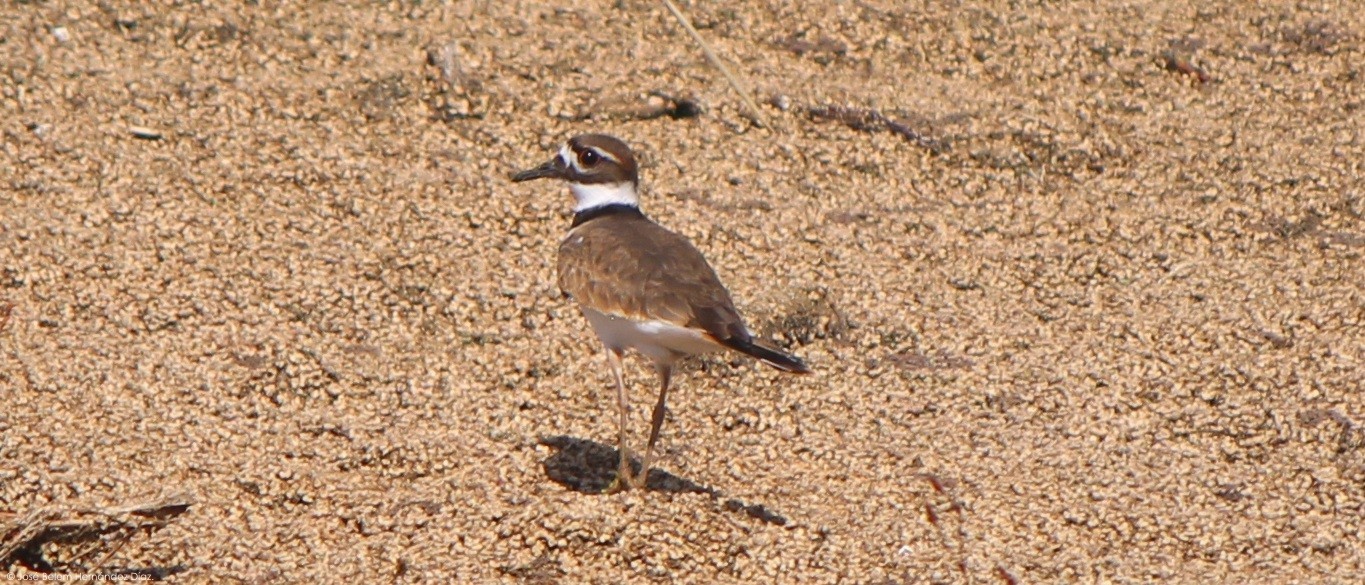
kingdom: Animalia
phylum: Chordata
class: Aves
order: Charadriiformes
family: Charadriidae
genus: Charadrius
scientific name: Charadrius vociferus
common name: Killdeer
